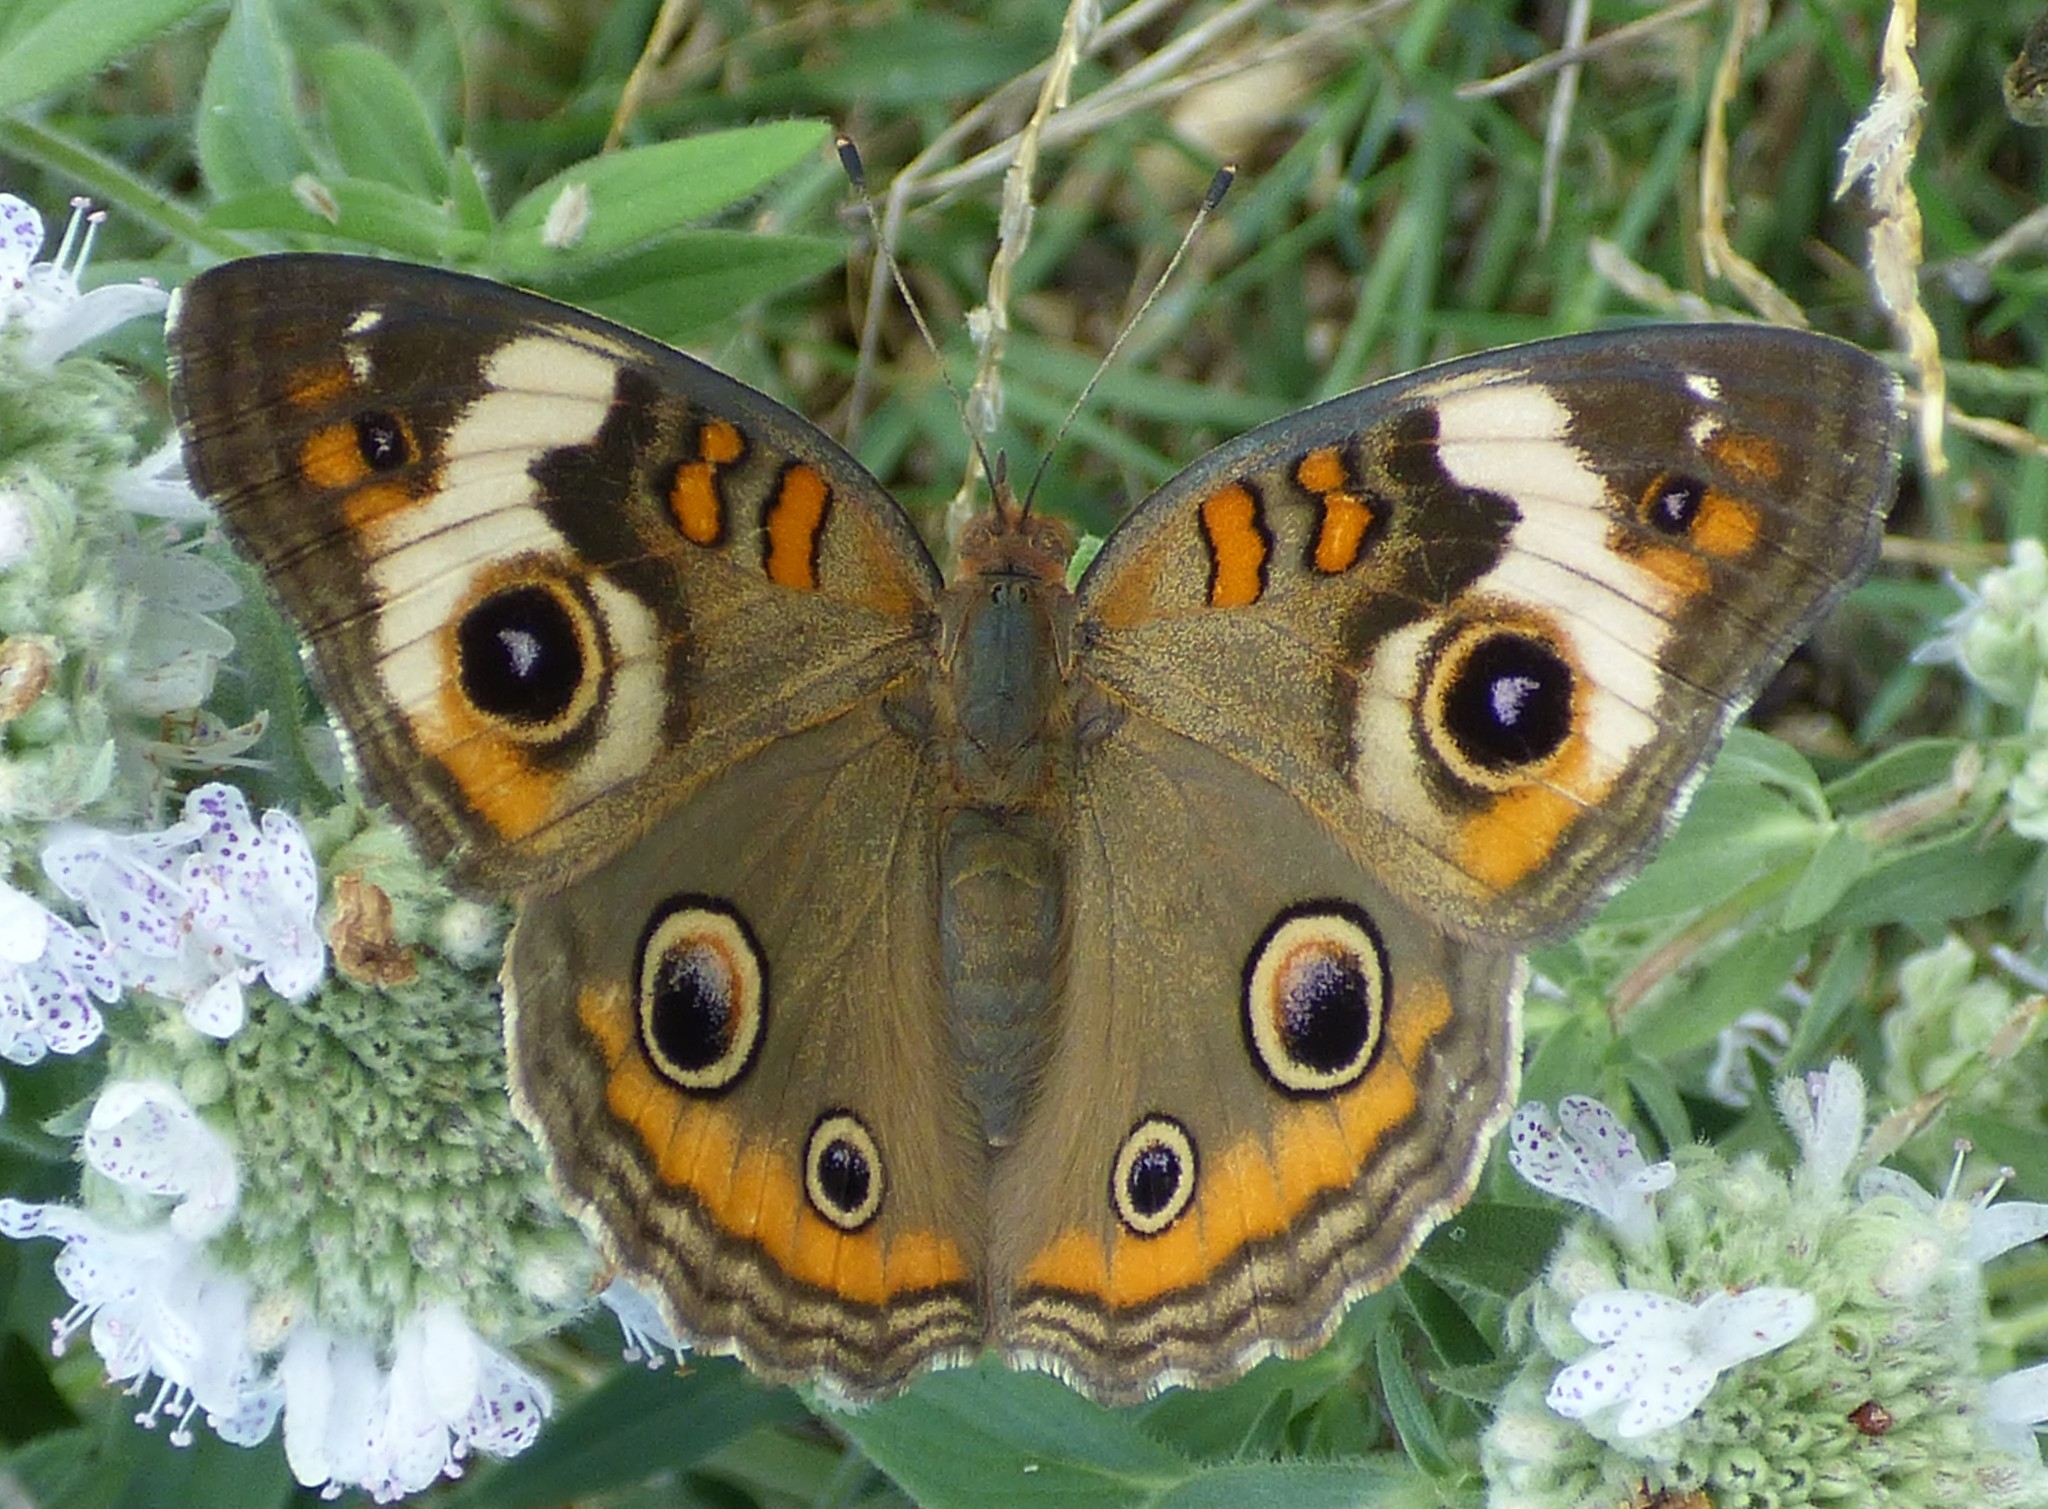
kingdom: Animalia
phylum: Arthropoda
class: Insecta
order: Lepidoptera
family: Nymphalidae
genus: Junonia
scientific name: Junonia coenia
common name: Common buckeye
